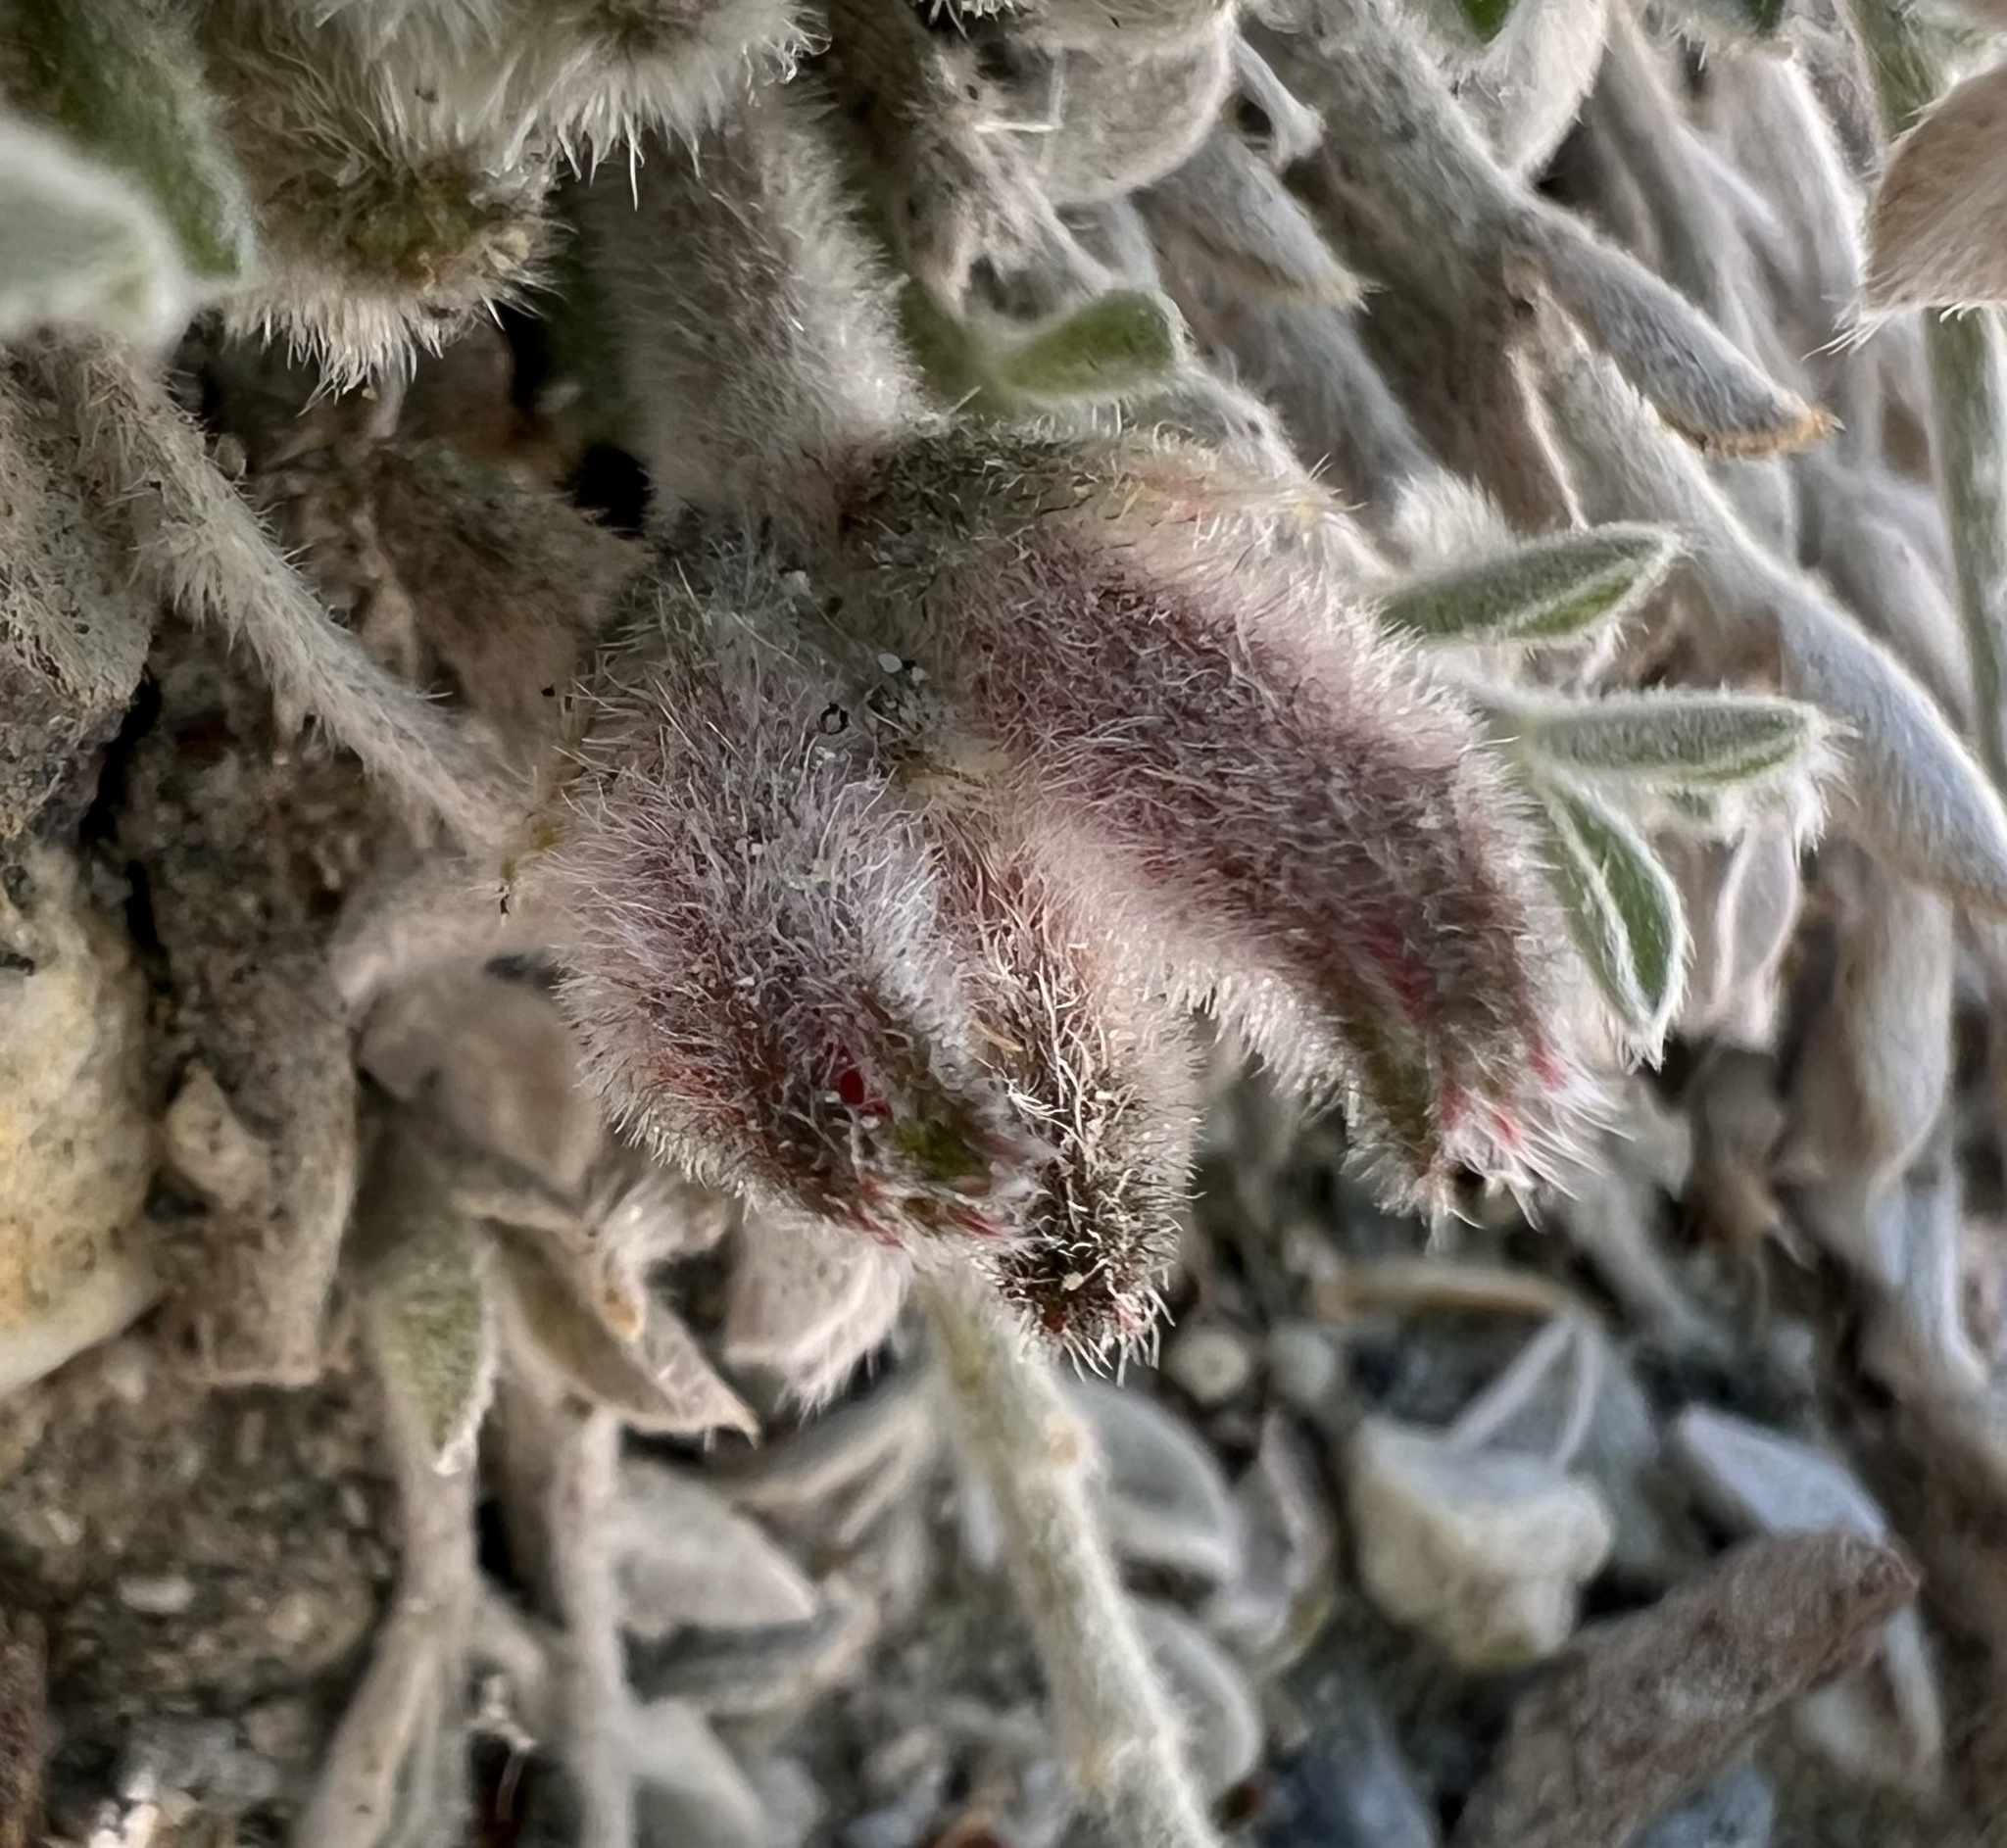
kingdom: Plantae
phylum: Tracheophyta
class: Magnoliopsida
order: Fabales
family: Fabaceae
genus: Astragalus
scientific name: Astragalus coccineus
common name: Scarlet milk-vetch
